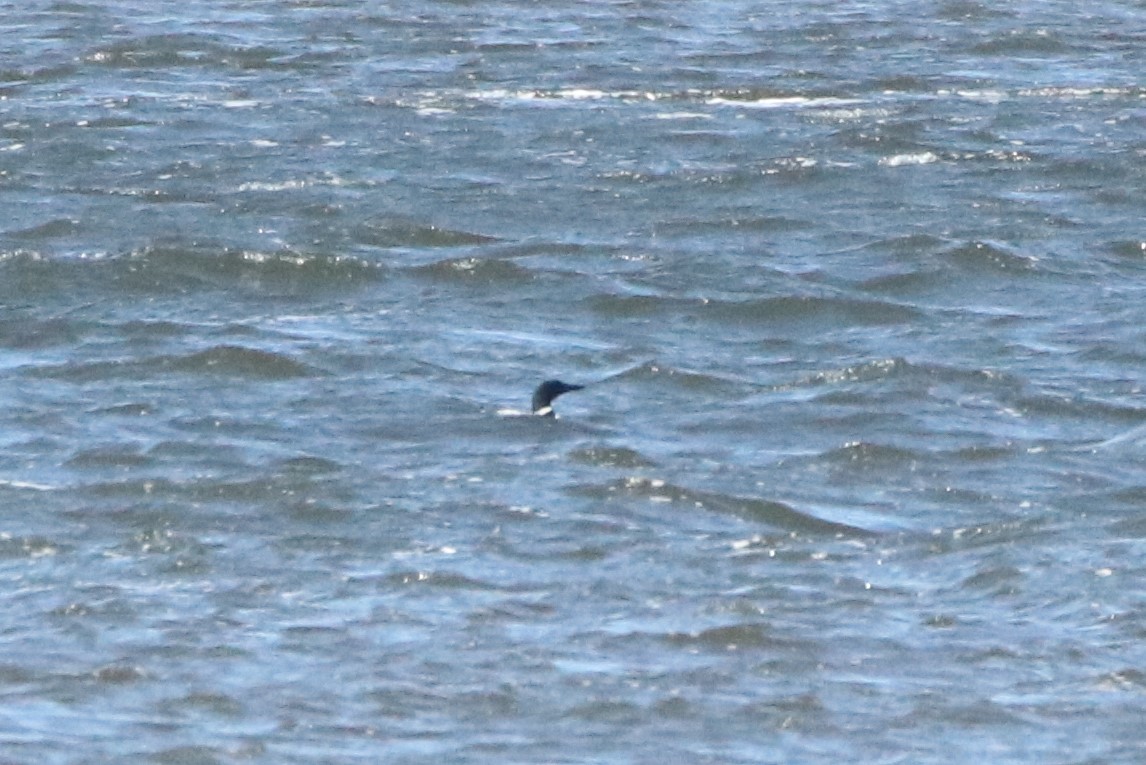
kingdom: Animalia
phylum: Chordata
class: Aves
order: Gaviiformes
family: Gaviidae
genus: Gavia
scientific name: Gavia immer
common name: Common loon
